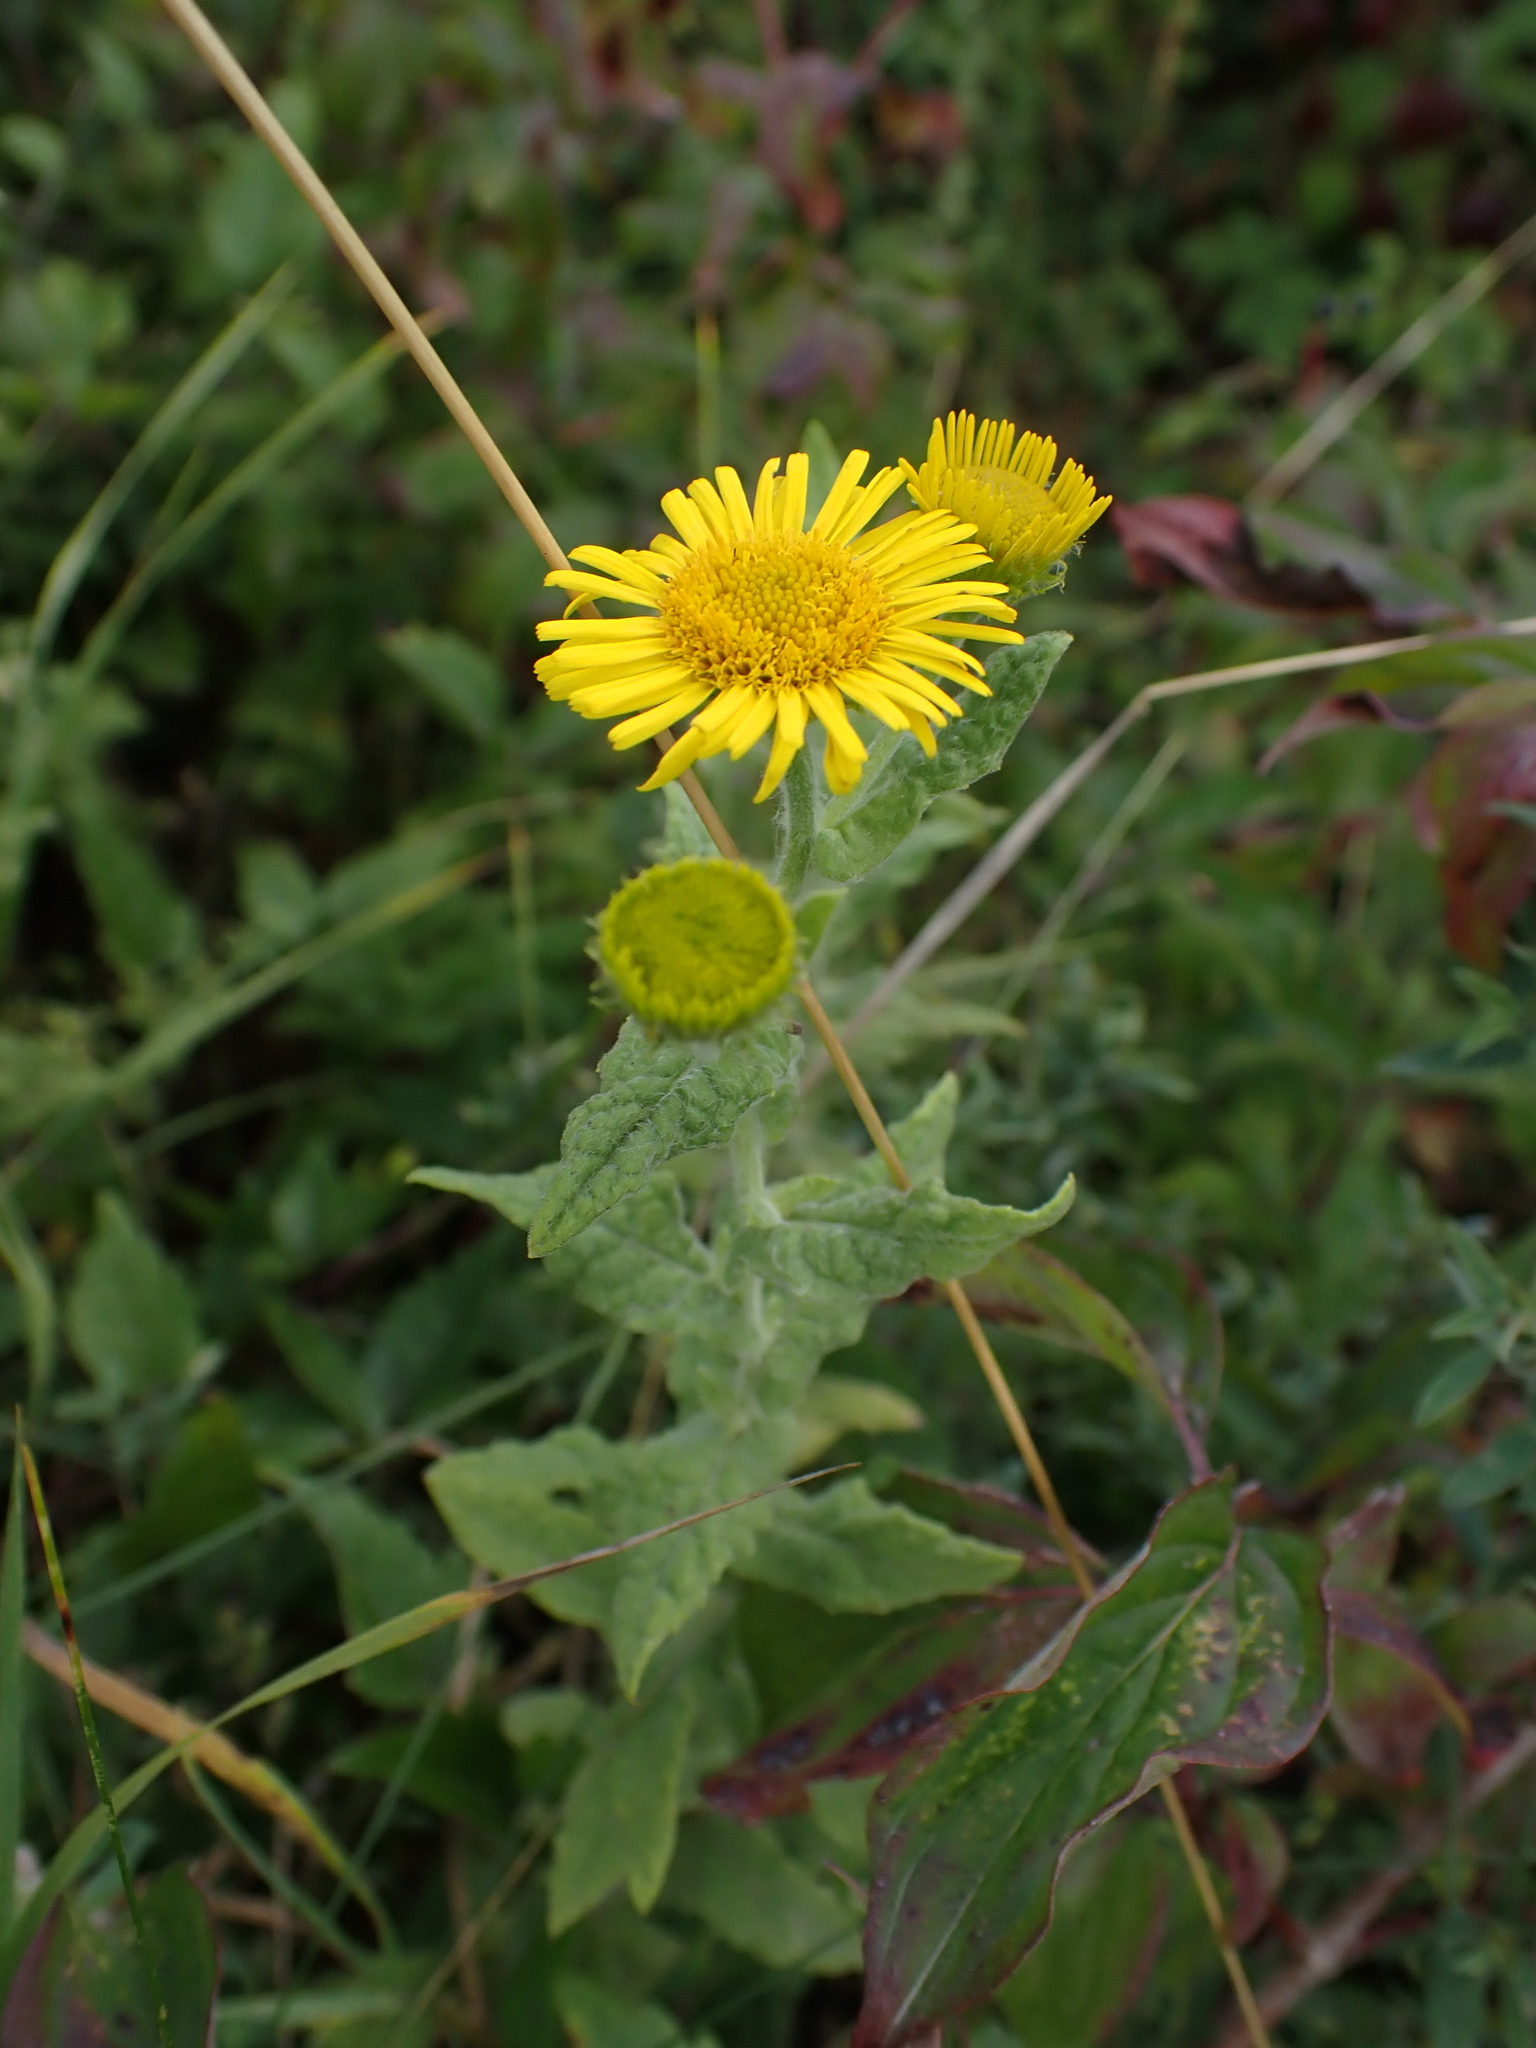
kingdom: Plantae
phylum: Tracheophyta
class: Magnoliopsida
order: Asterales
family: Asteraceae
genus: Pulicaria
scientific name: Pulicaria dysenterica
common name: Common fleabane
